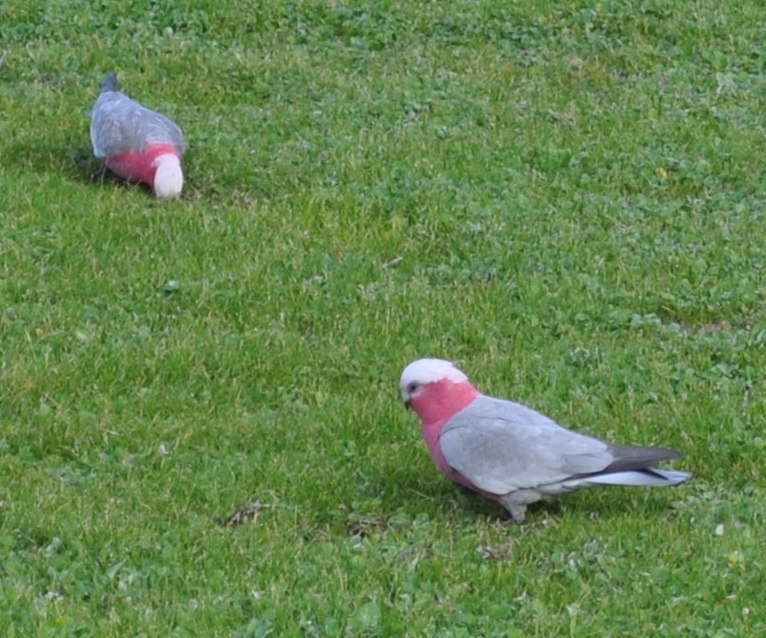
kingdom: Animalia
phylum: Chordata
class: Aves
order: Psittaciformes
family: Psittacidae
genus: Eolophus
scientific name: Eolophus roseicapilla
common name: Galah
